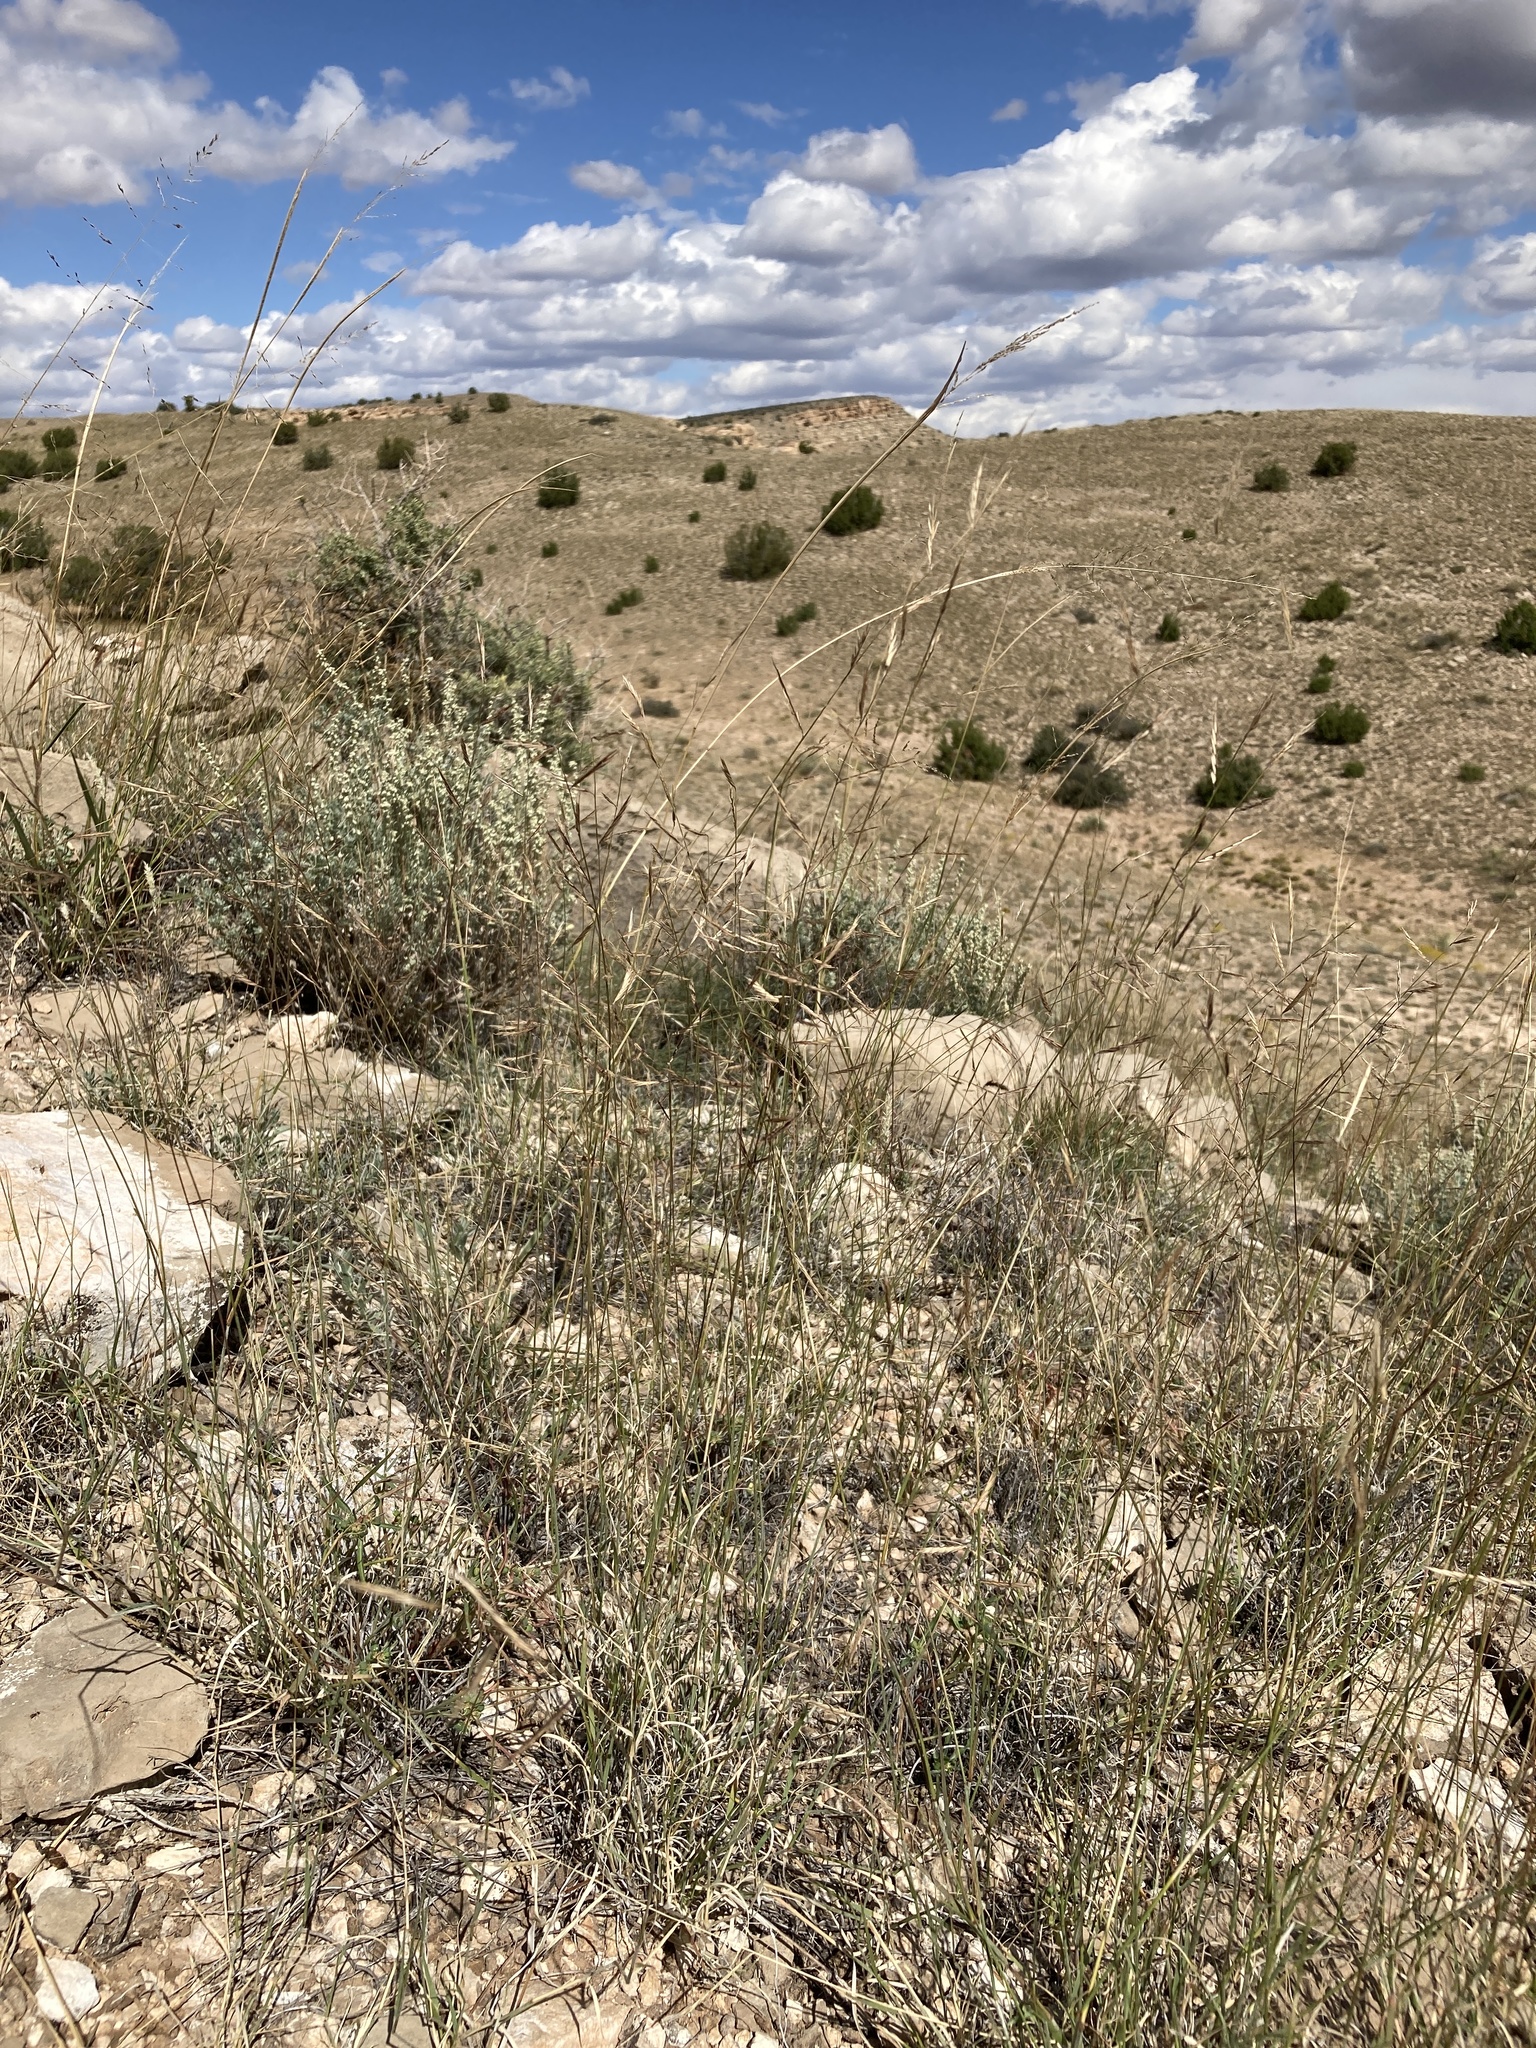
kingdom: Plantae
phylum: Tracheophyta
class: Liliopsida
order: Poales
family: Poaceae
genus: Bouteloua
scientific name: Bouteloua eriopoda
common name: Woolly foot grama
